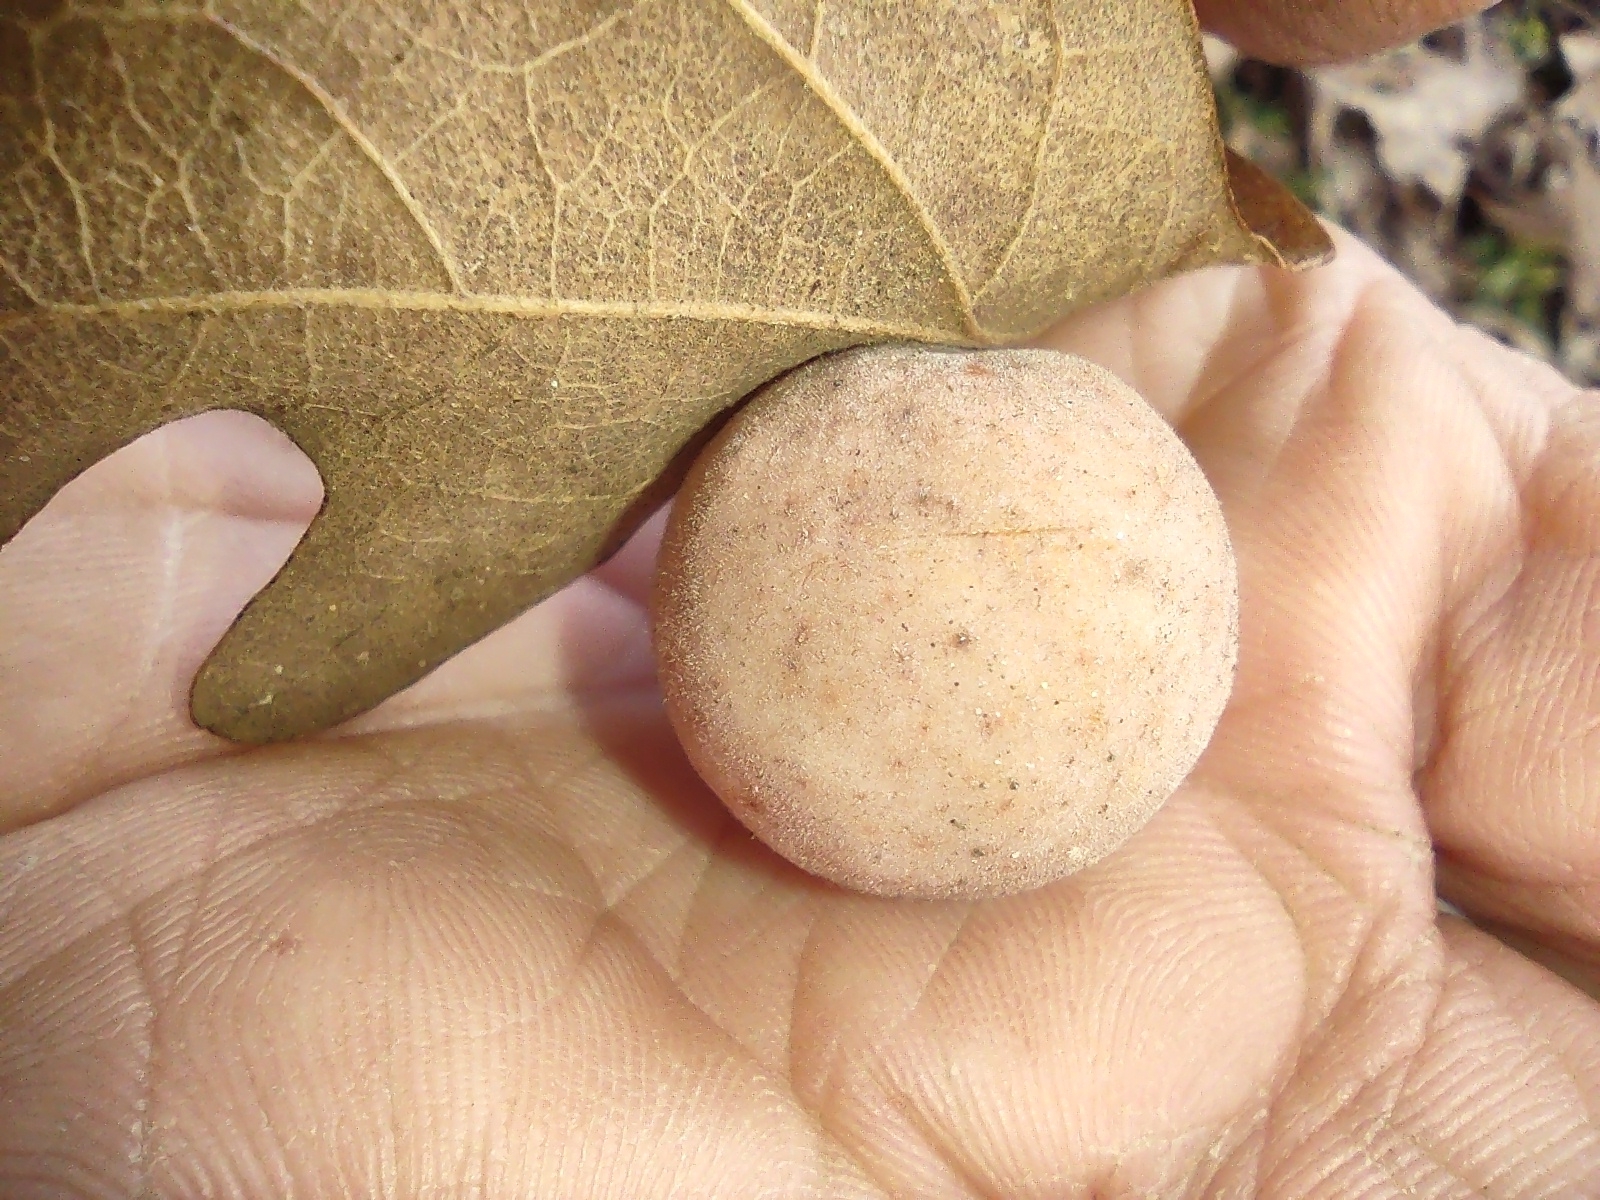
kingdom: Animalia
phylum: Arthropoda
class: Insecta
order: Hymenoptera
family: Cynipidae
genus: Atrusca
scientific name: Atrusca
